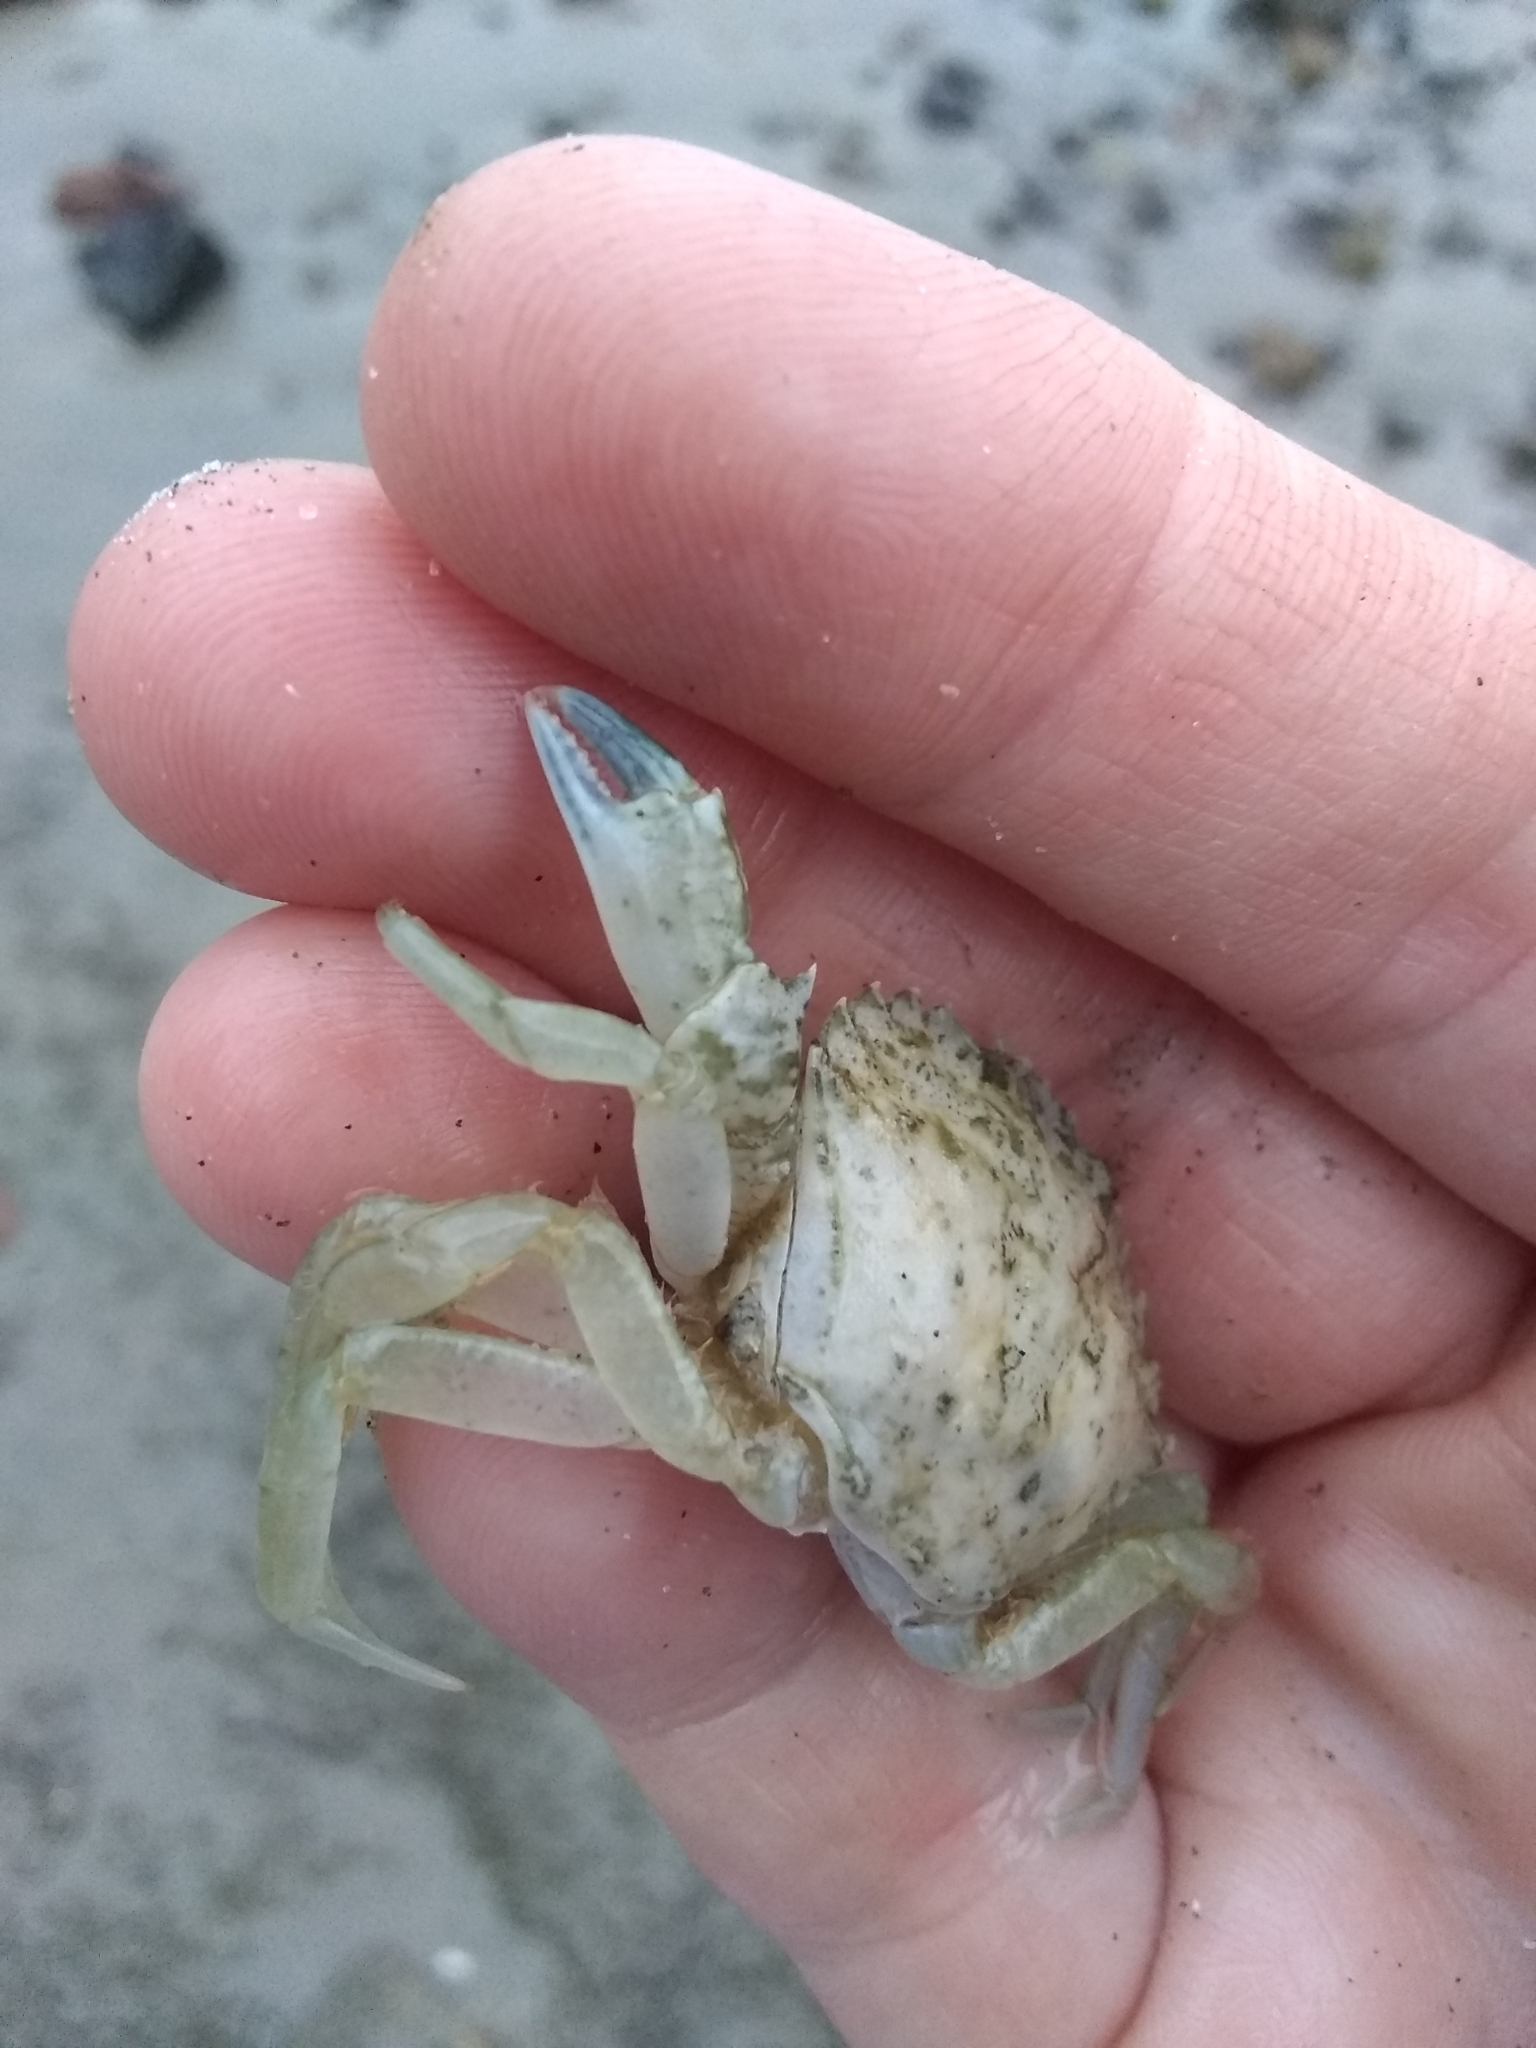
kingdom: Animalia
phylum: Arthropoda
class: Malacostraca
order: Decapoda
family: Carcinidae
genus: Carcinus
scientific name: Carcinus maenas
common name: European green crab
